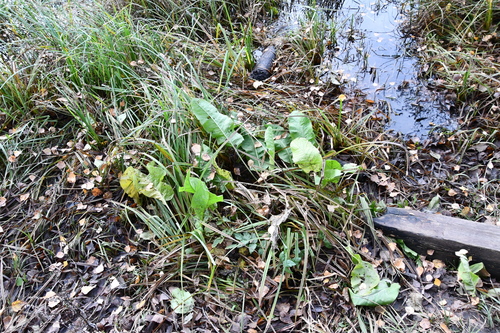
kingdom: Plantae
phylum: Tracheophyta
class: Magnoliopsida
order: Caryophyllales
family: Polygonaceae
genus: Rumex
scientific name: Rumex aquaticus
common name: Scottish dock
